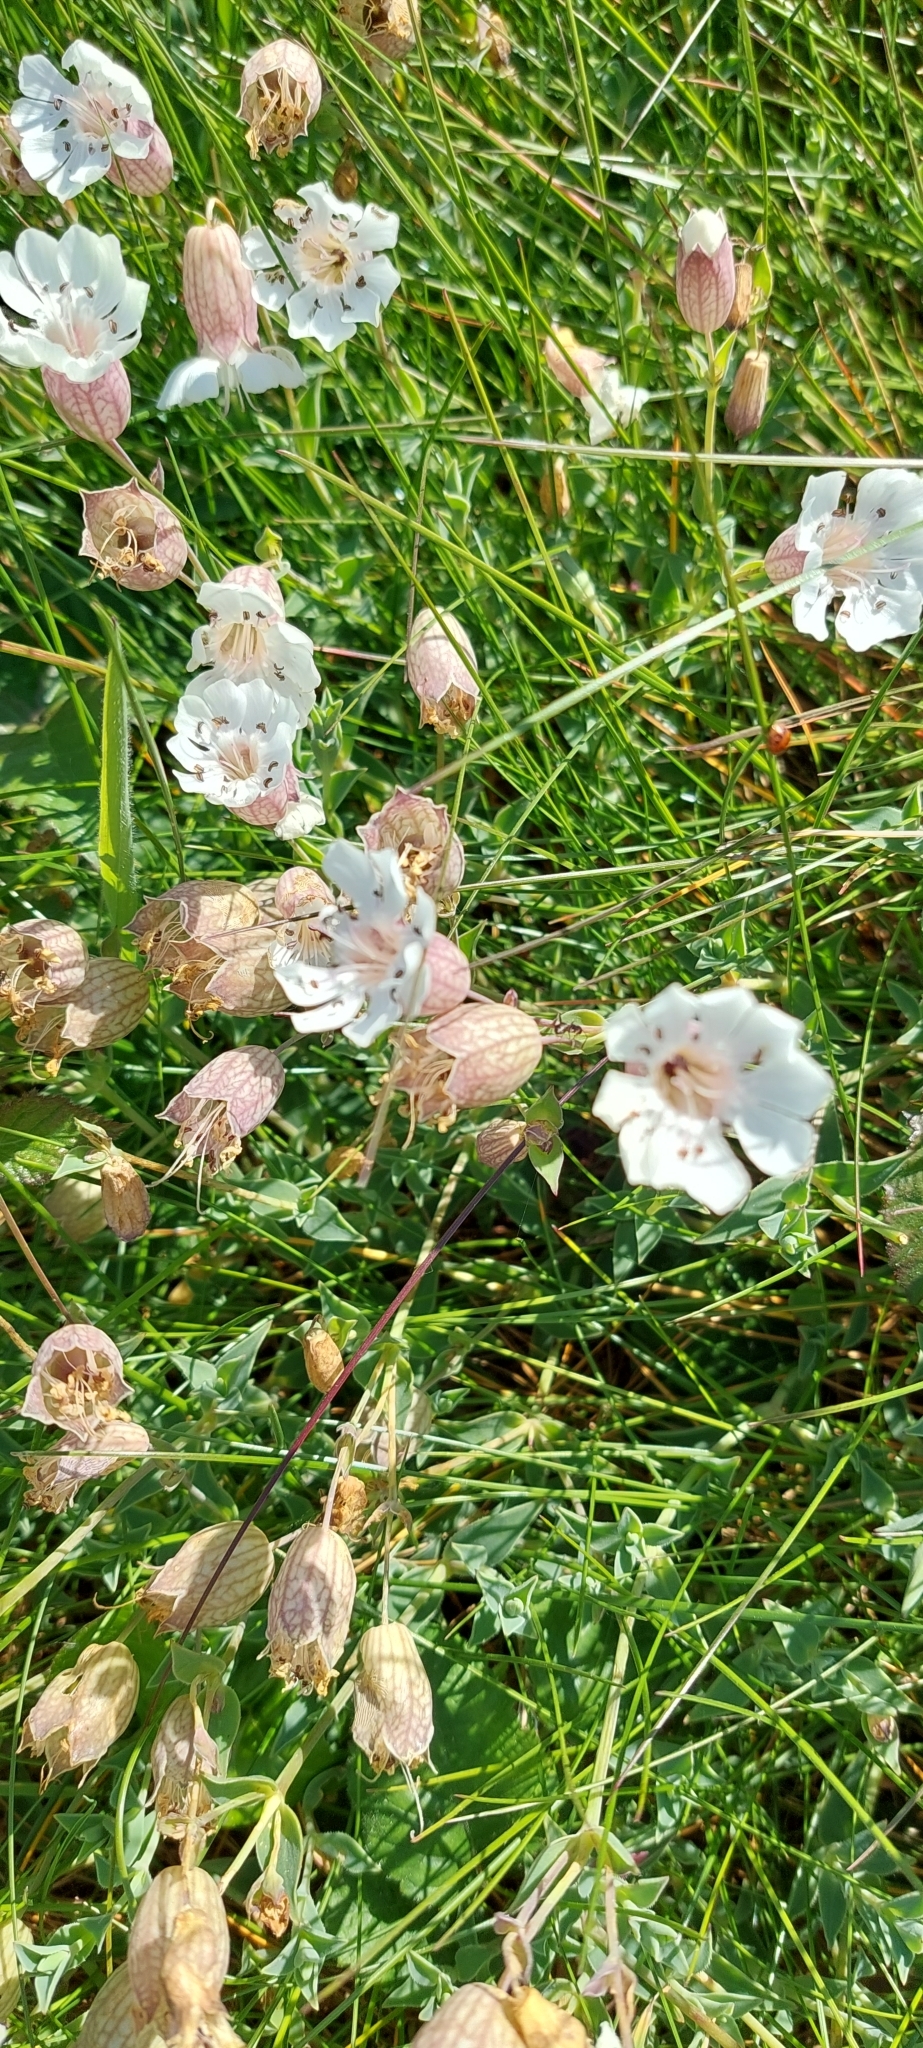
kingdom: Plantae
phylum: Tracheophyta
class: Magnoliopsida
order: Caryophyllales
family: Caryophyllaceae
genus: Silene
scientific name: Silene uniflora
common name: Sea campion
